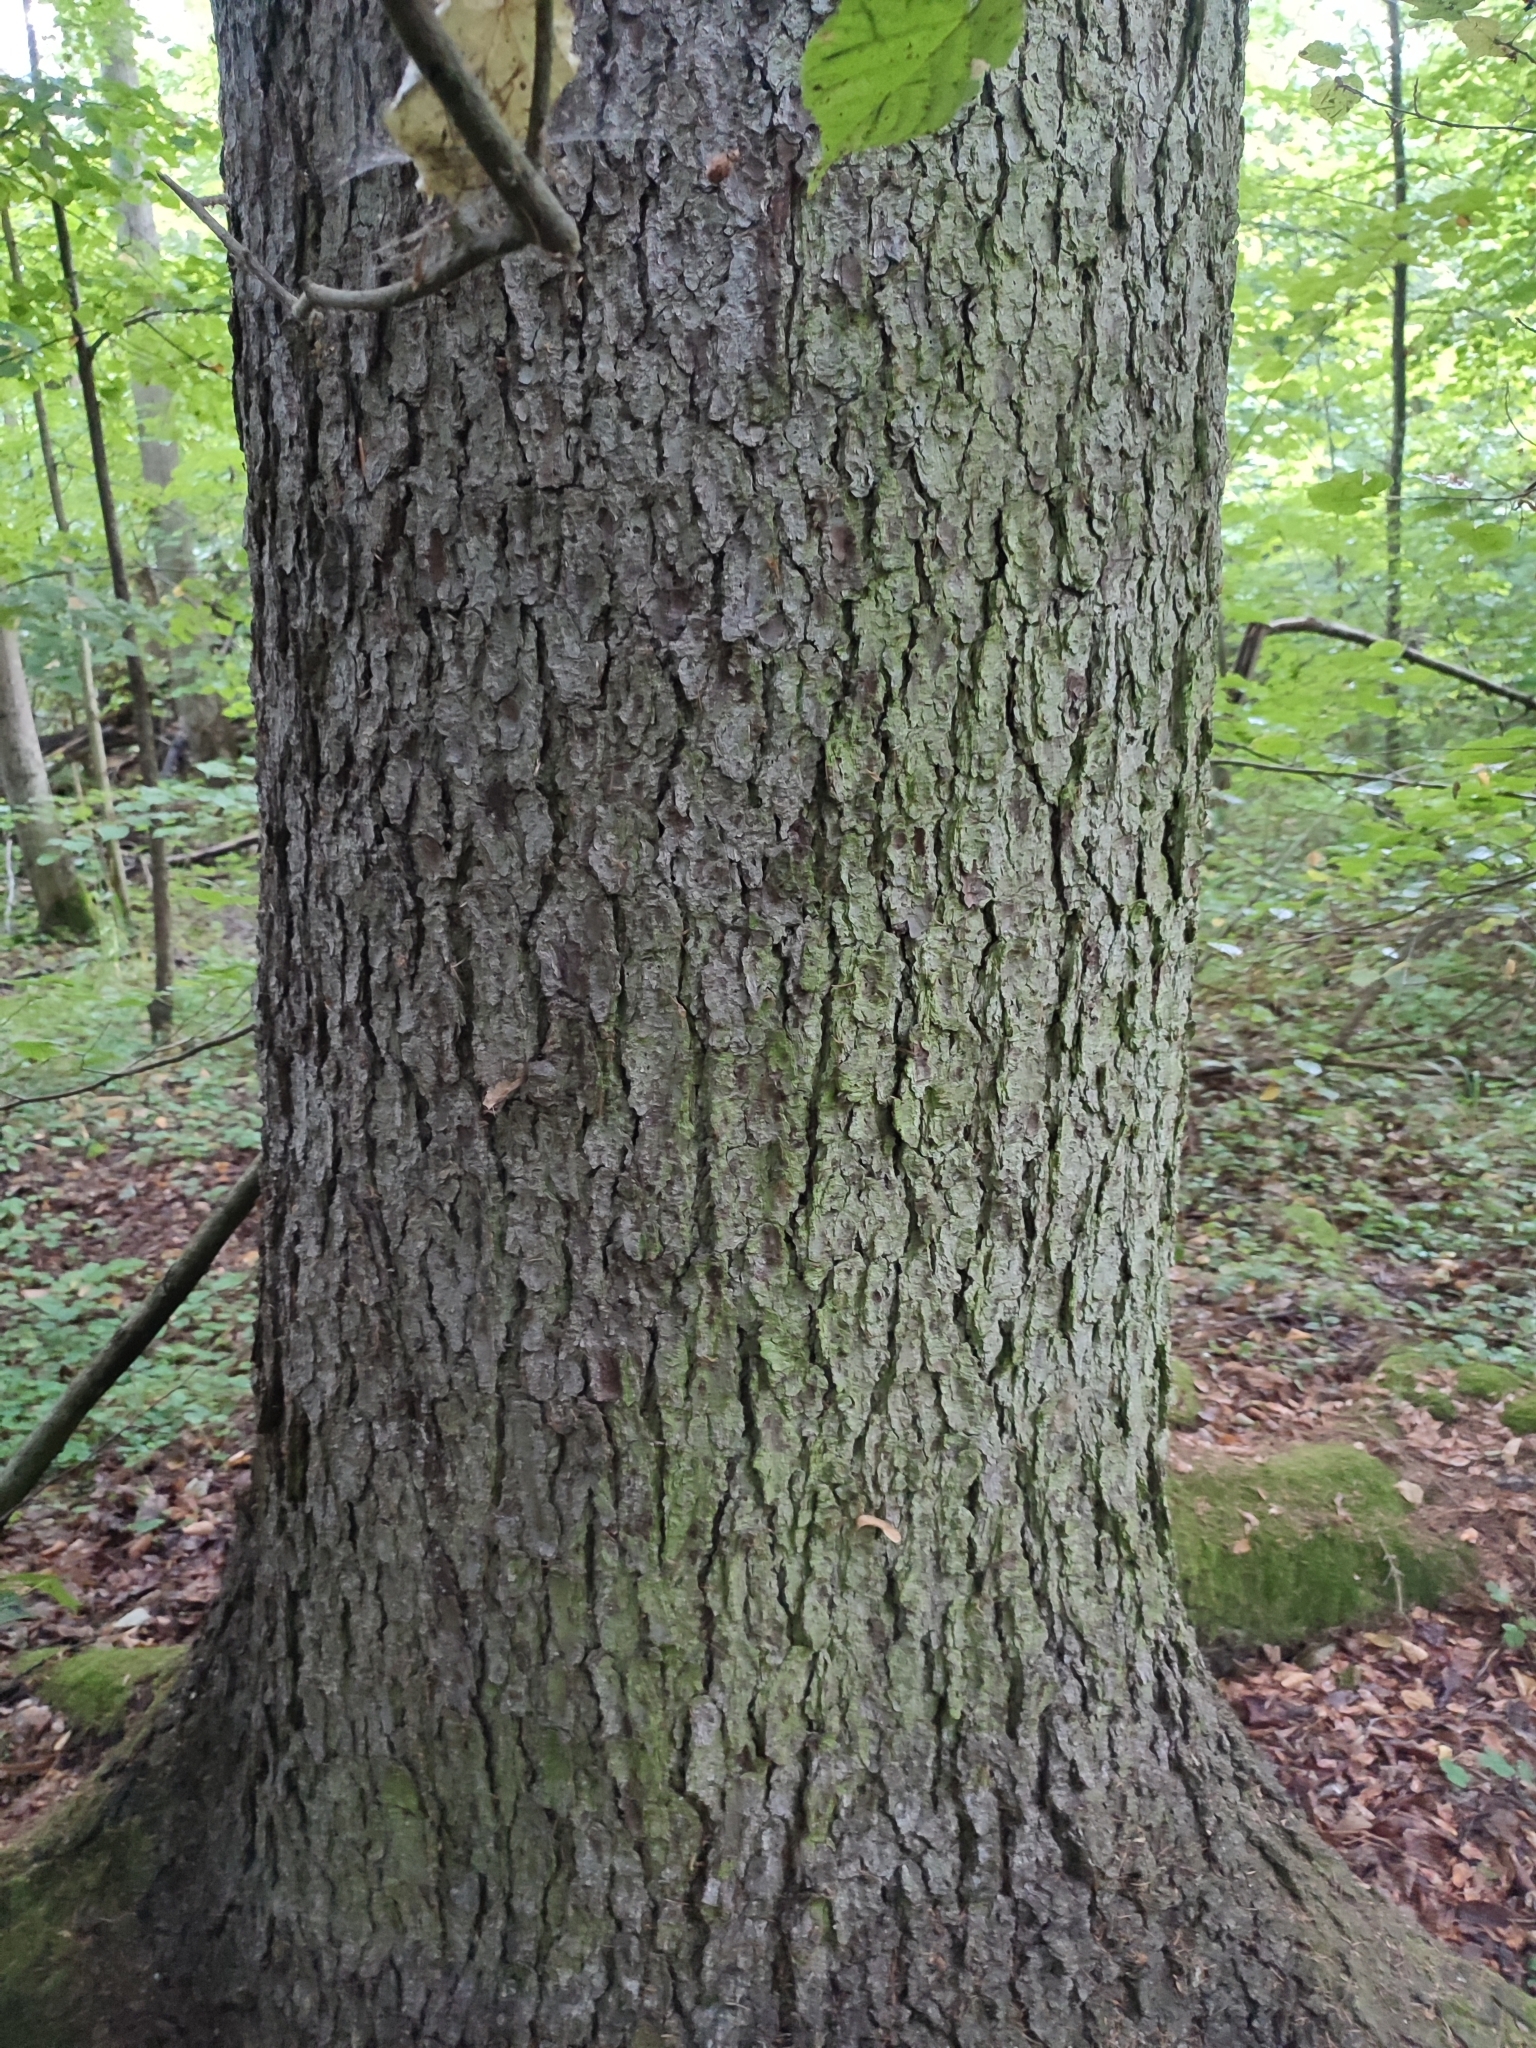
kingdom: Plantae
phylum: Tracheophyta
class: Pinopsida
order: Pinales
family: Pinaceae
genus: Picea
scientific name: Picea abies
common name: Norway spruce
